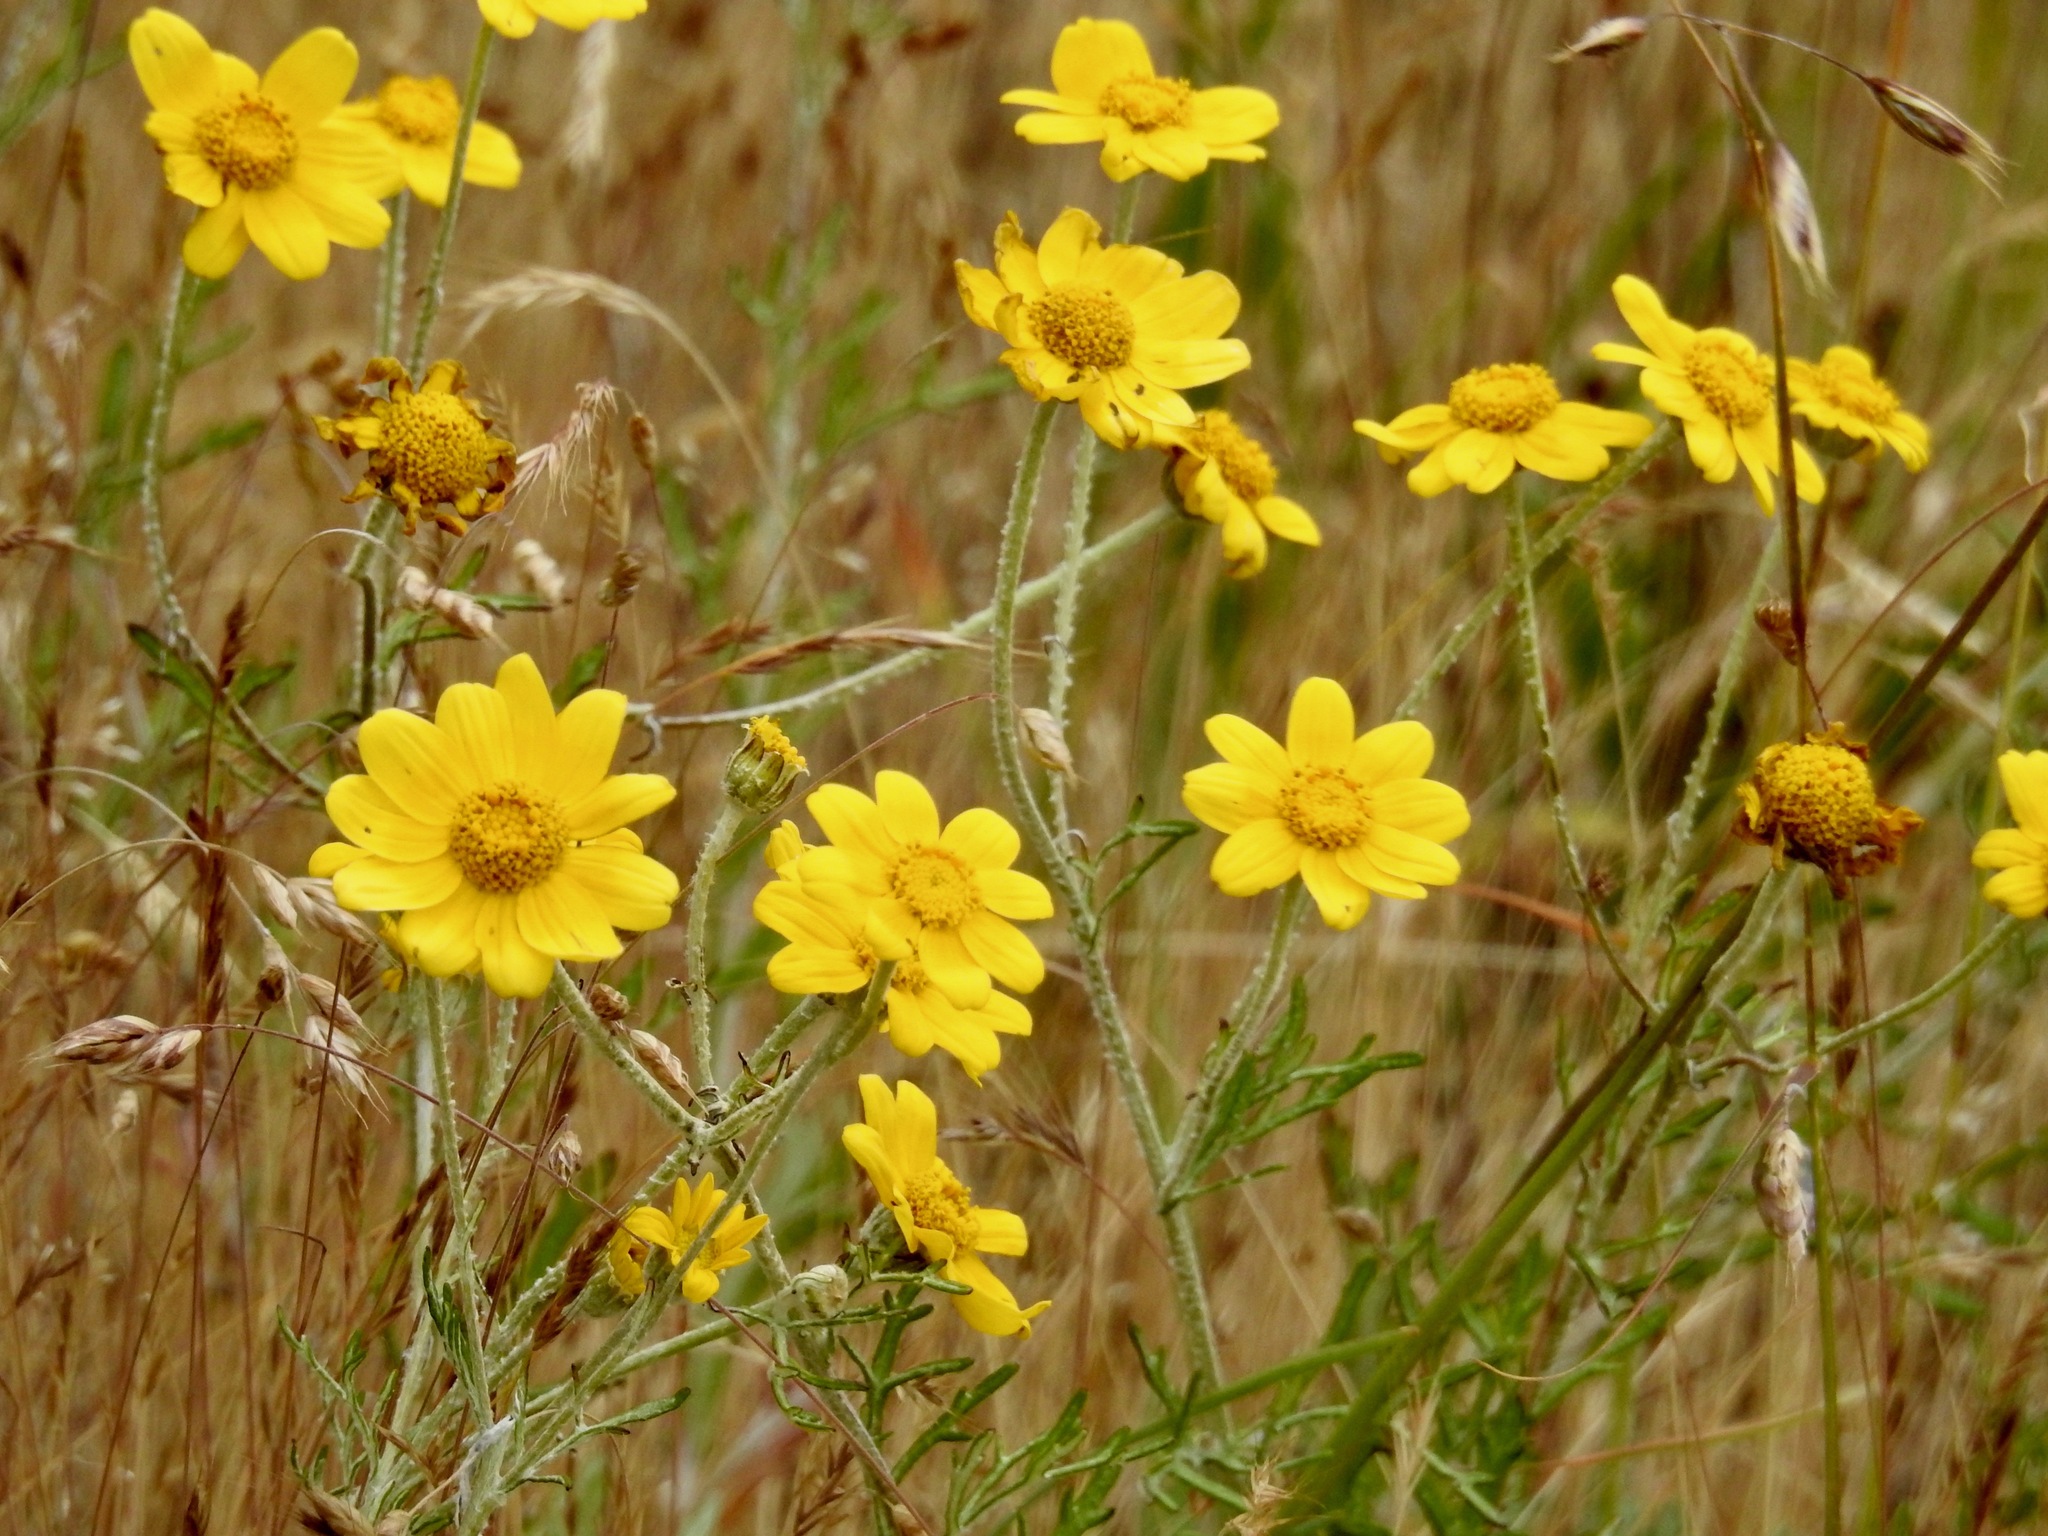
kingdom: Plantae
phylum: Tracheophyta
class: Magnoliopsida
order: Asterales
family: Asteraceae
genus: Eriophyllum
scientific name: Eriophyllum lanatum
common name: Common woolly-sunflower
